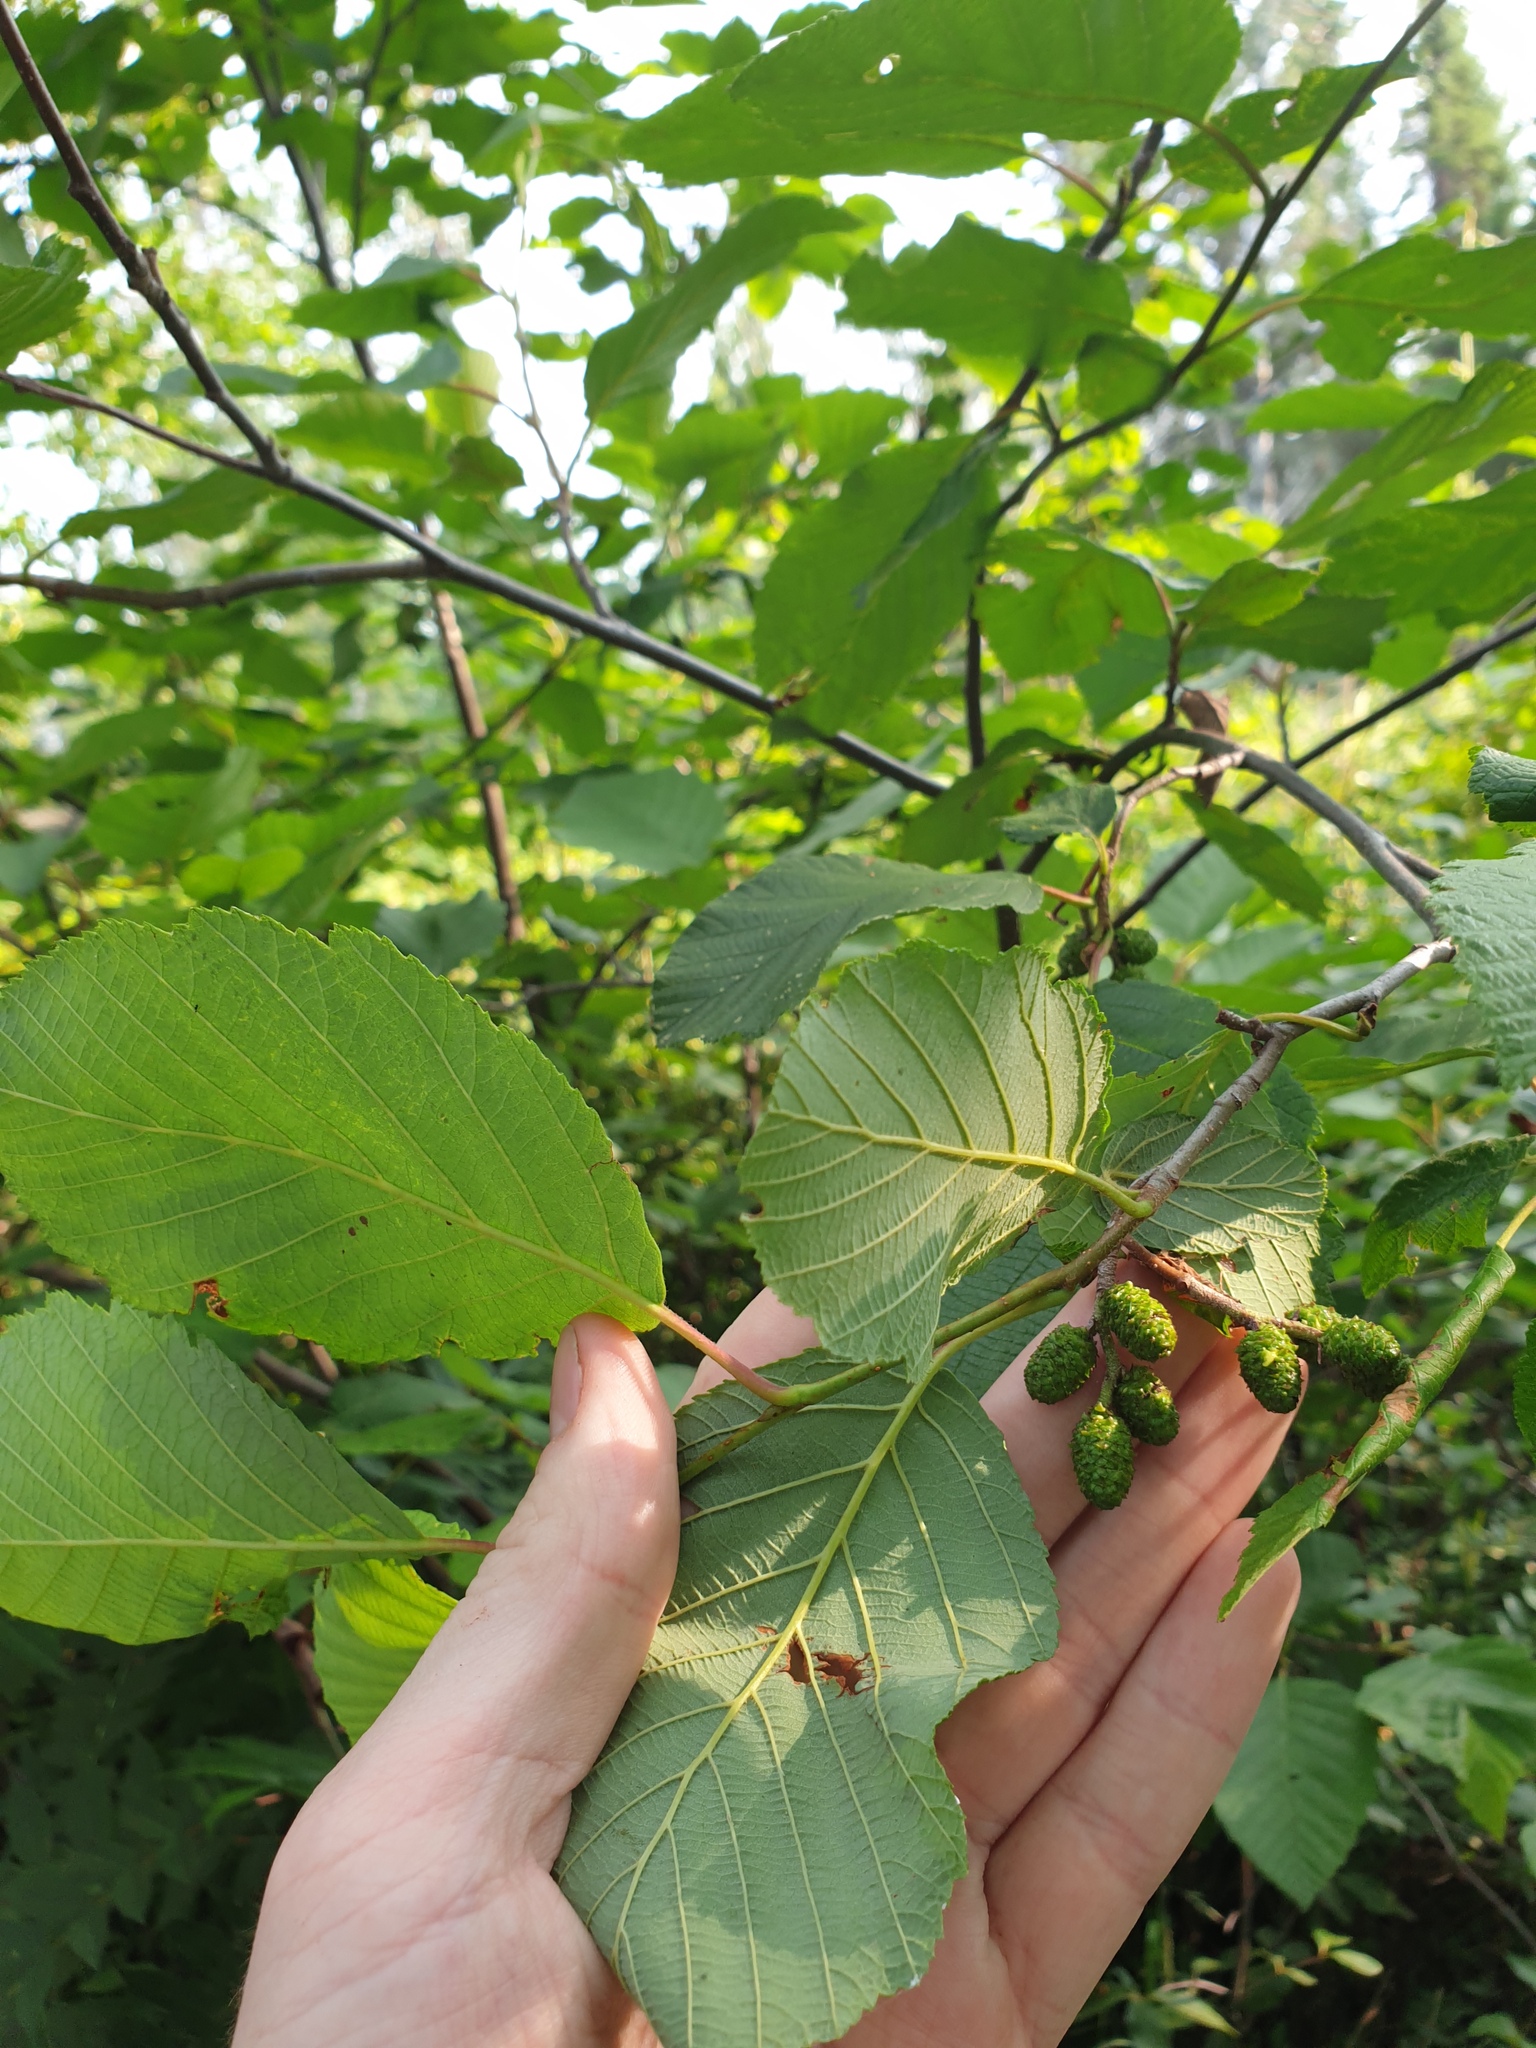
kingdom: Plantae
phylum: Tracheophyta
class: Magnoliopsida
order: Fagales
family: Betulaceae
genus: Alnus
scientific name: Alnus incana
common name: Grey alder
